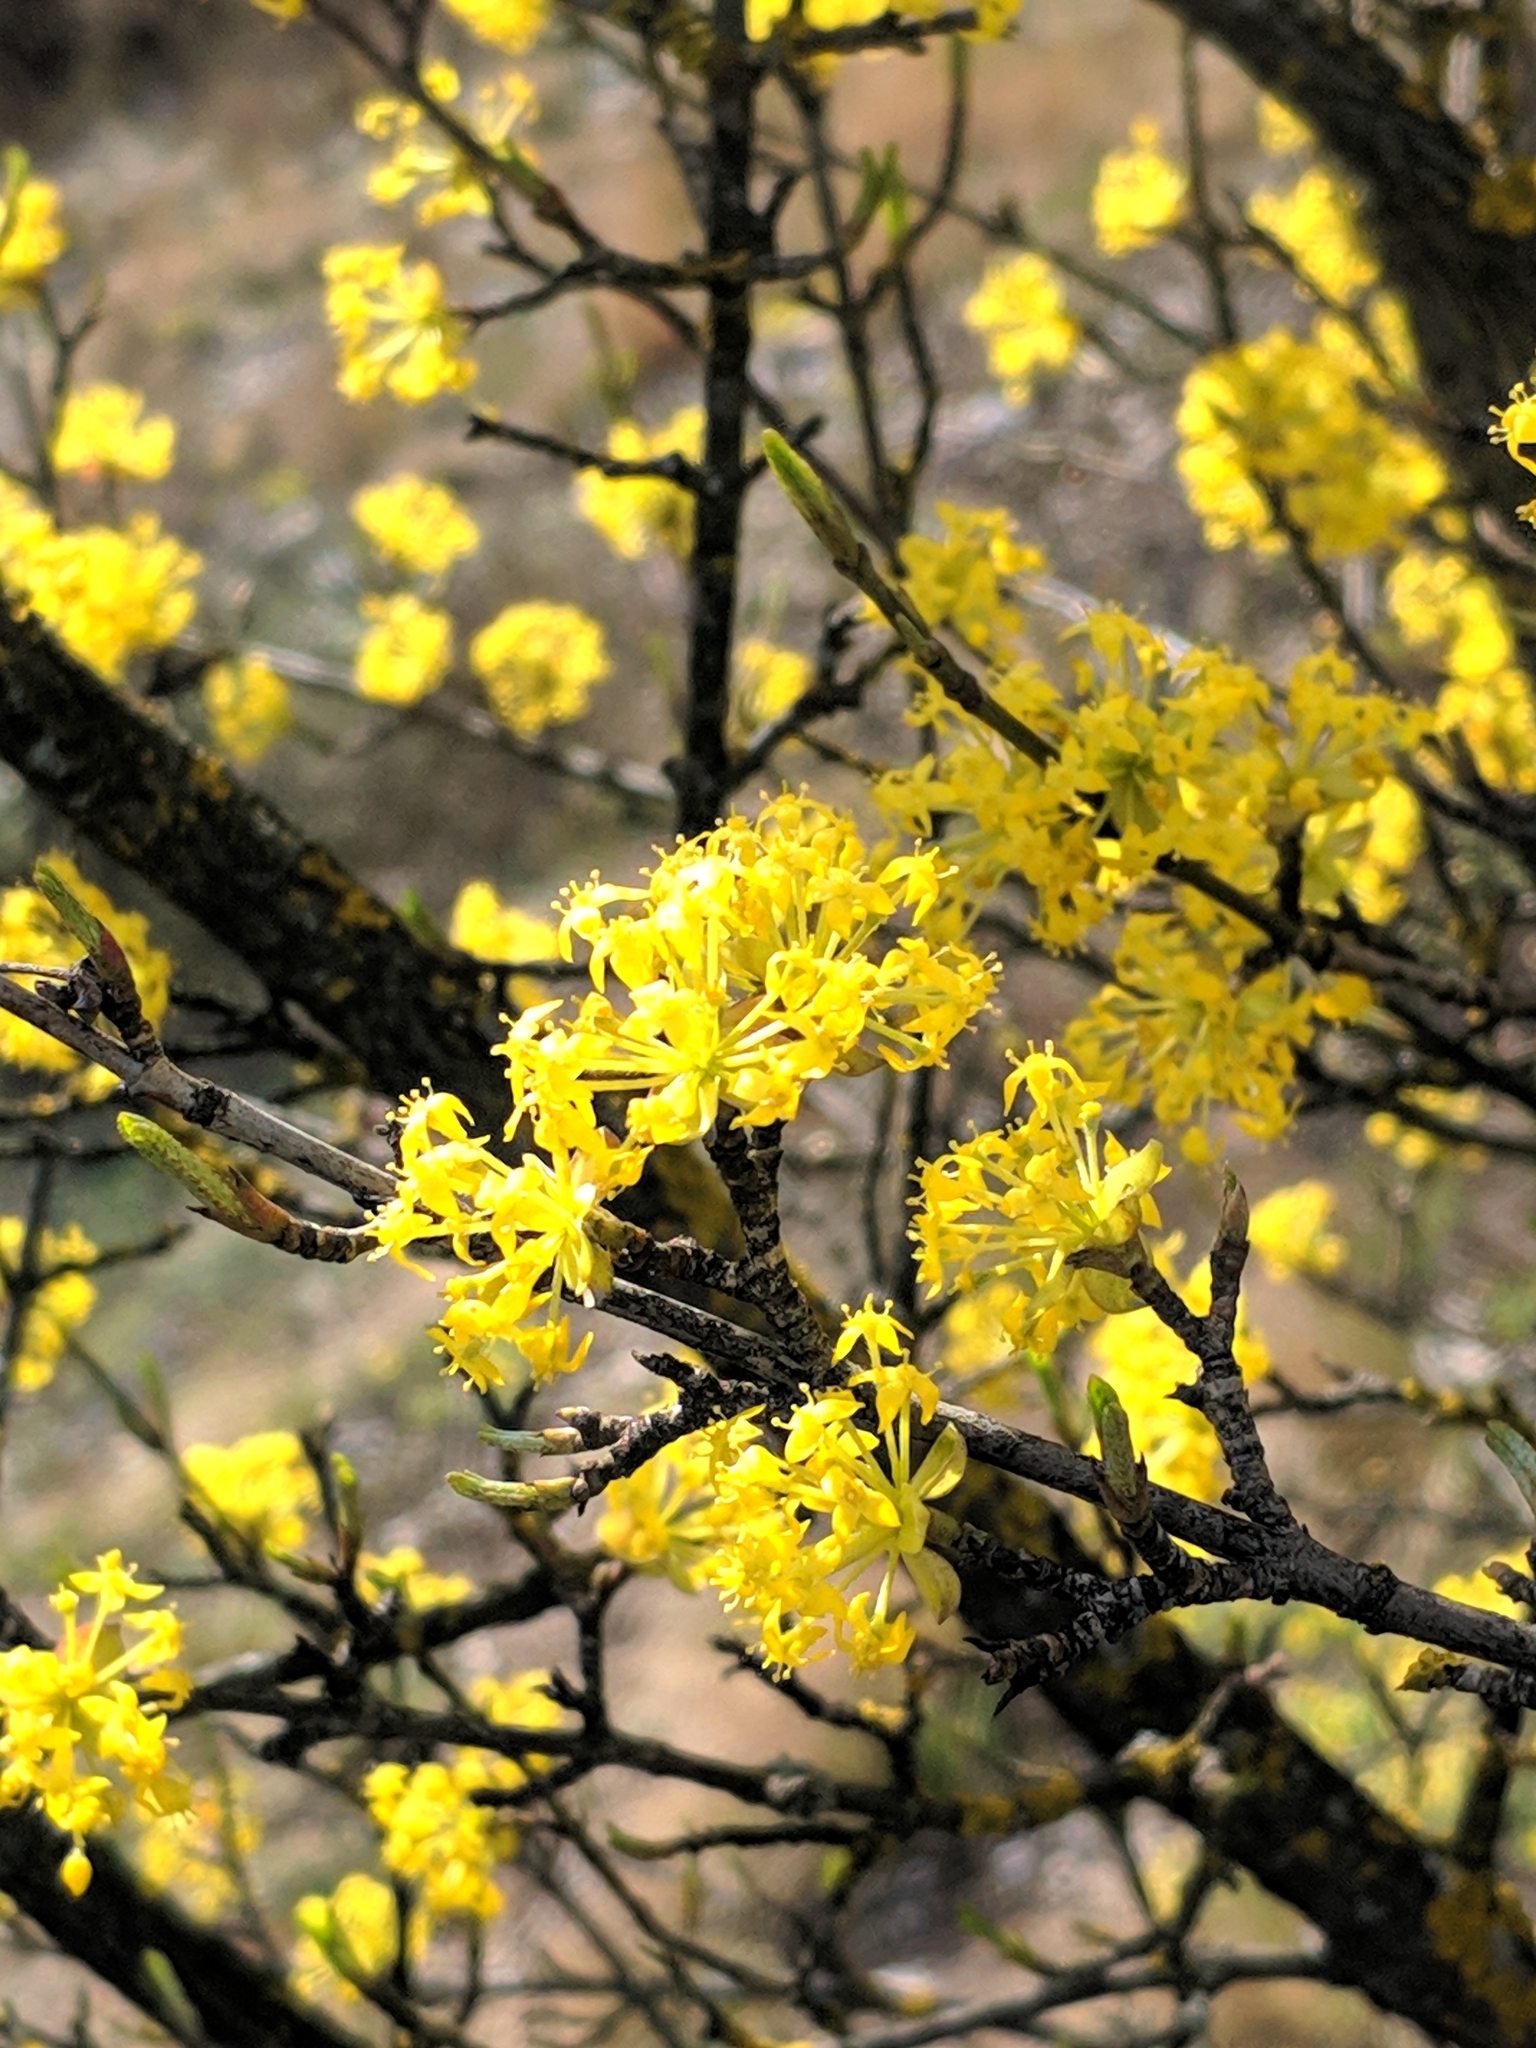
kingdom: Plantae
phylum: Tracheophyta
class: Magnoliopsida
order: Cornales
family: Cornaceae
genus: Cornus
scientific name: Cornus mas
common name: Cornelian-cherry
